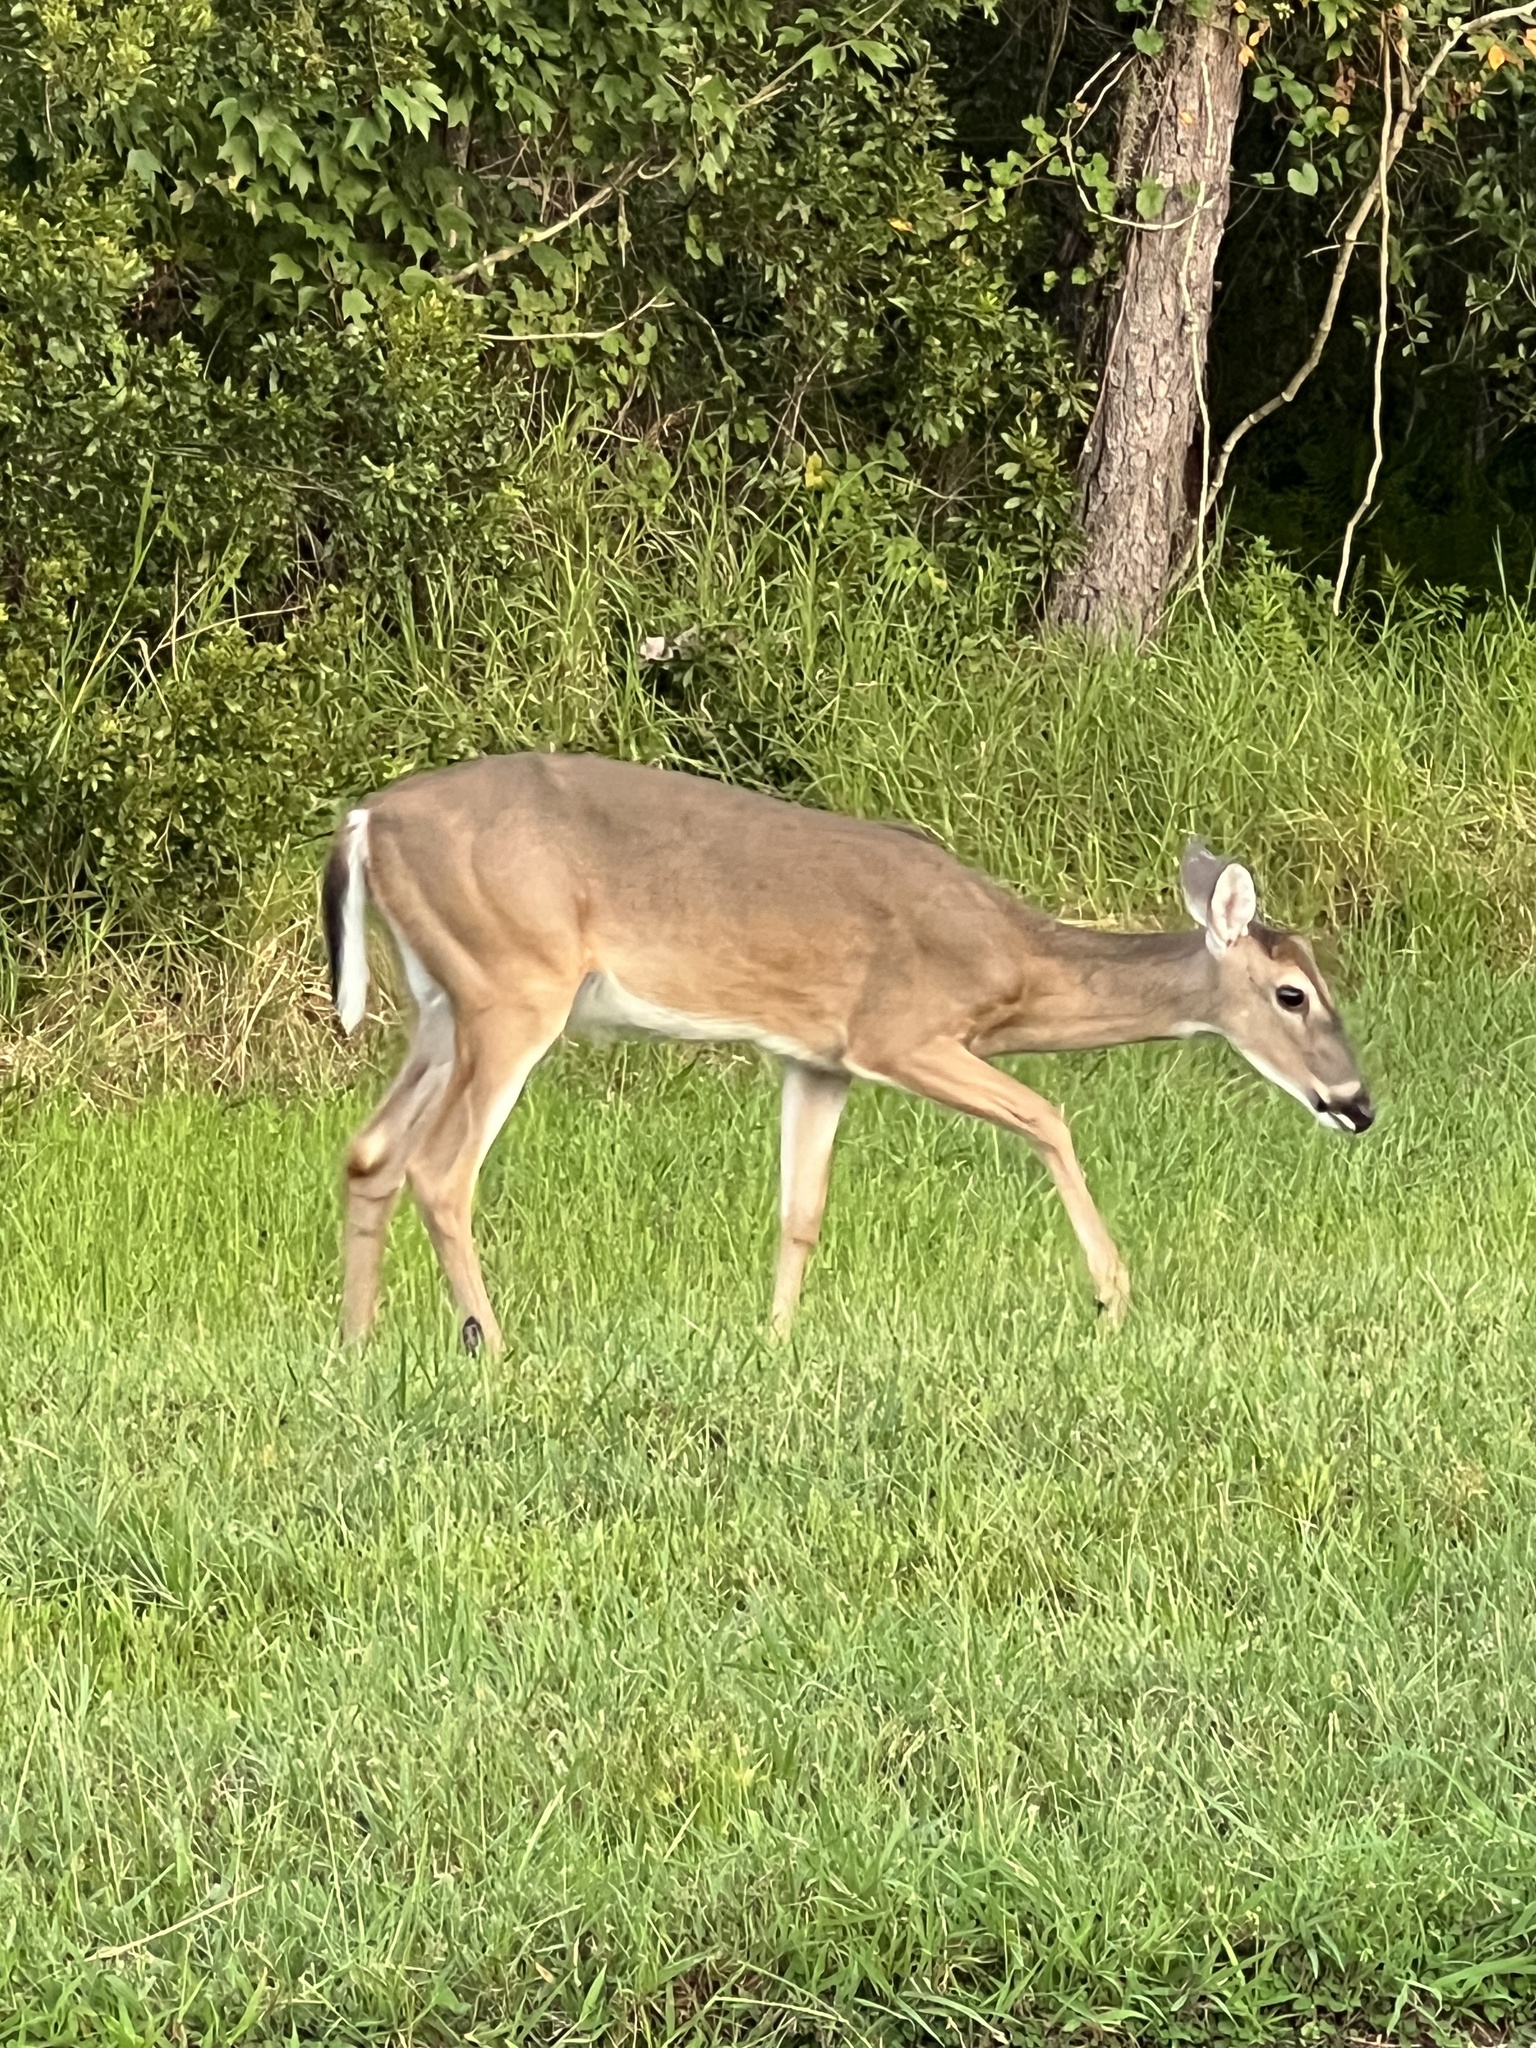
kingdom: Animalia
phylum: Chordata
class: Mammalia
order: Artiodactyla
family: Cervidae
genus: Odocoileus
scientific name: Odocoileus virginianus
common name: White-tailed deer
